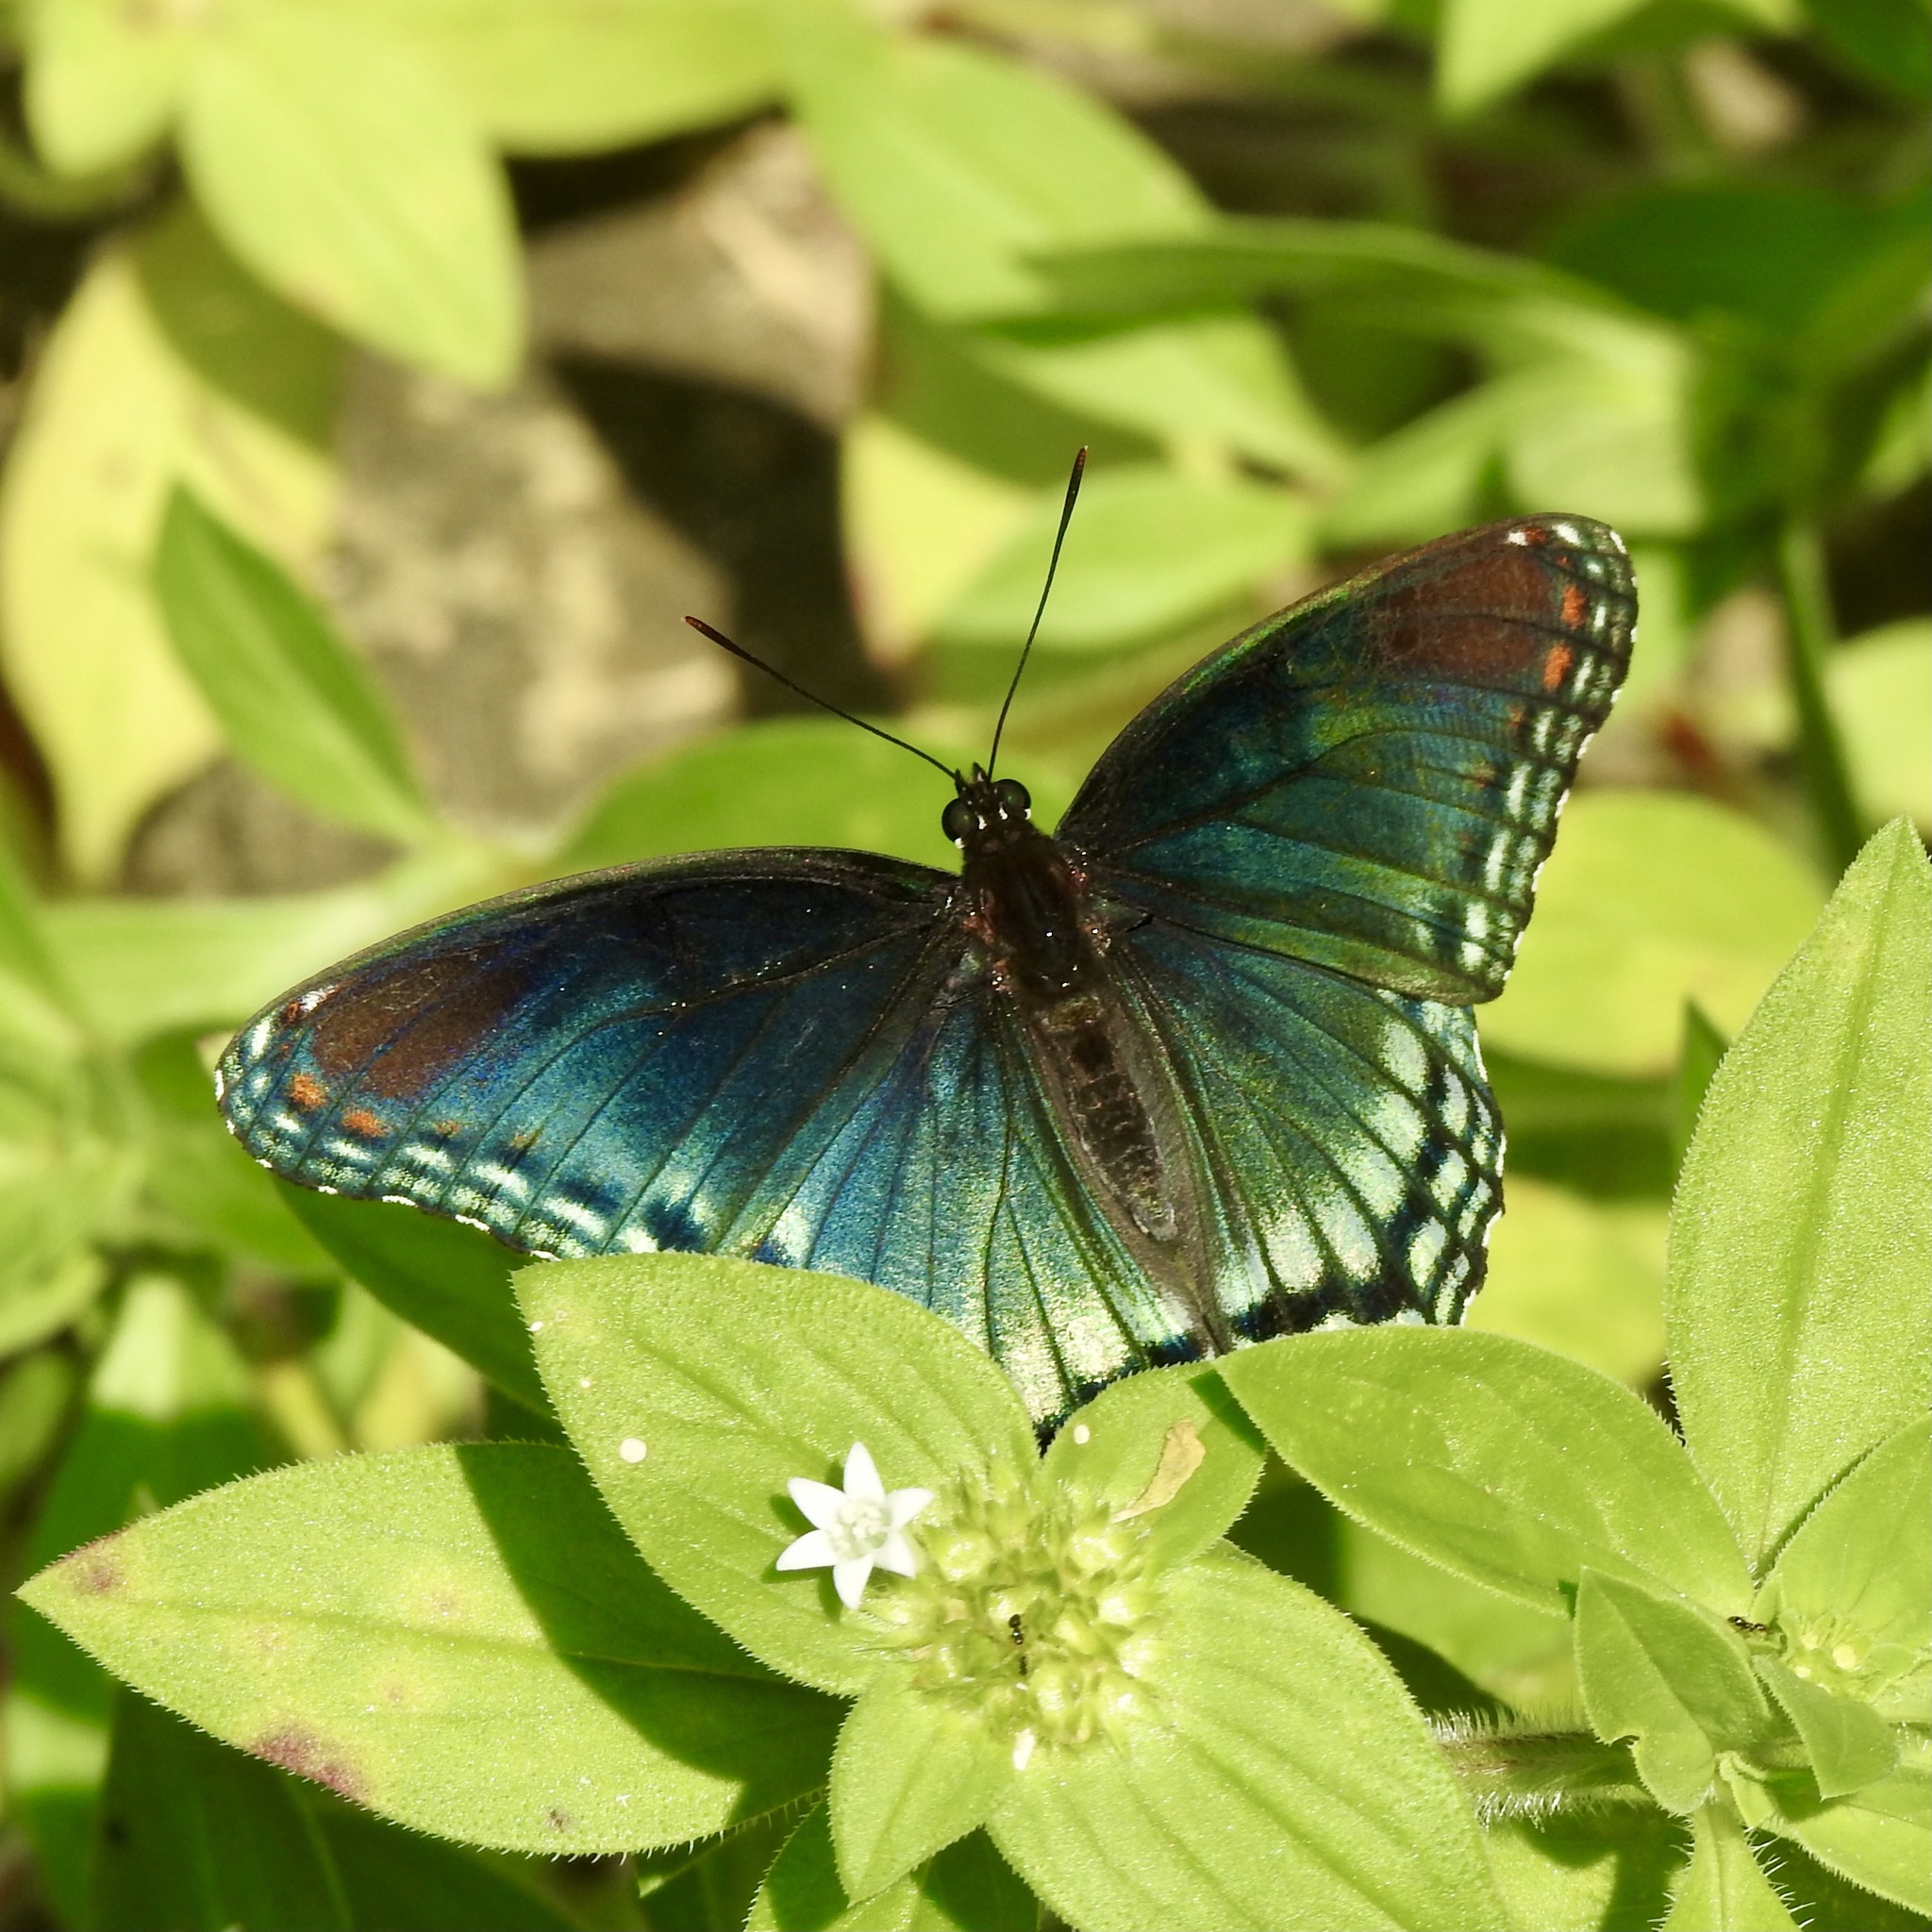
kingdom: Animalia
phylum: Arthropoda
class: Insecta
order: Lepidoptera
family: Nymphalidae
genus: Limenitis
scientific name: Limenitis arthemis
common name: Red-spotted admiral
